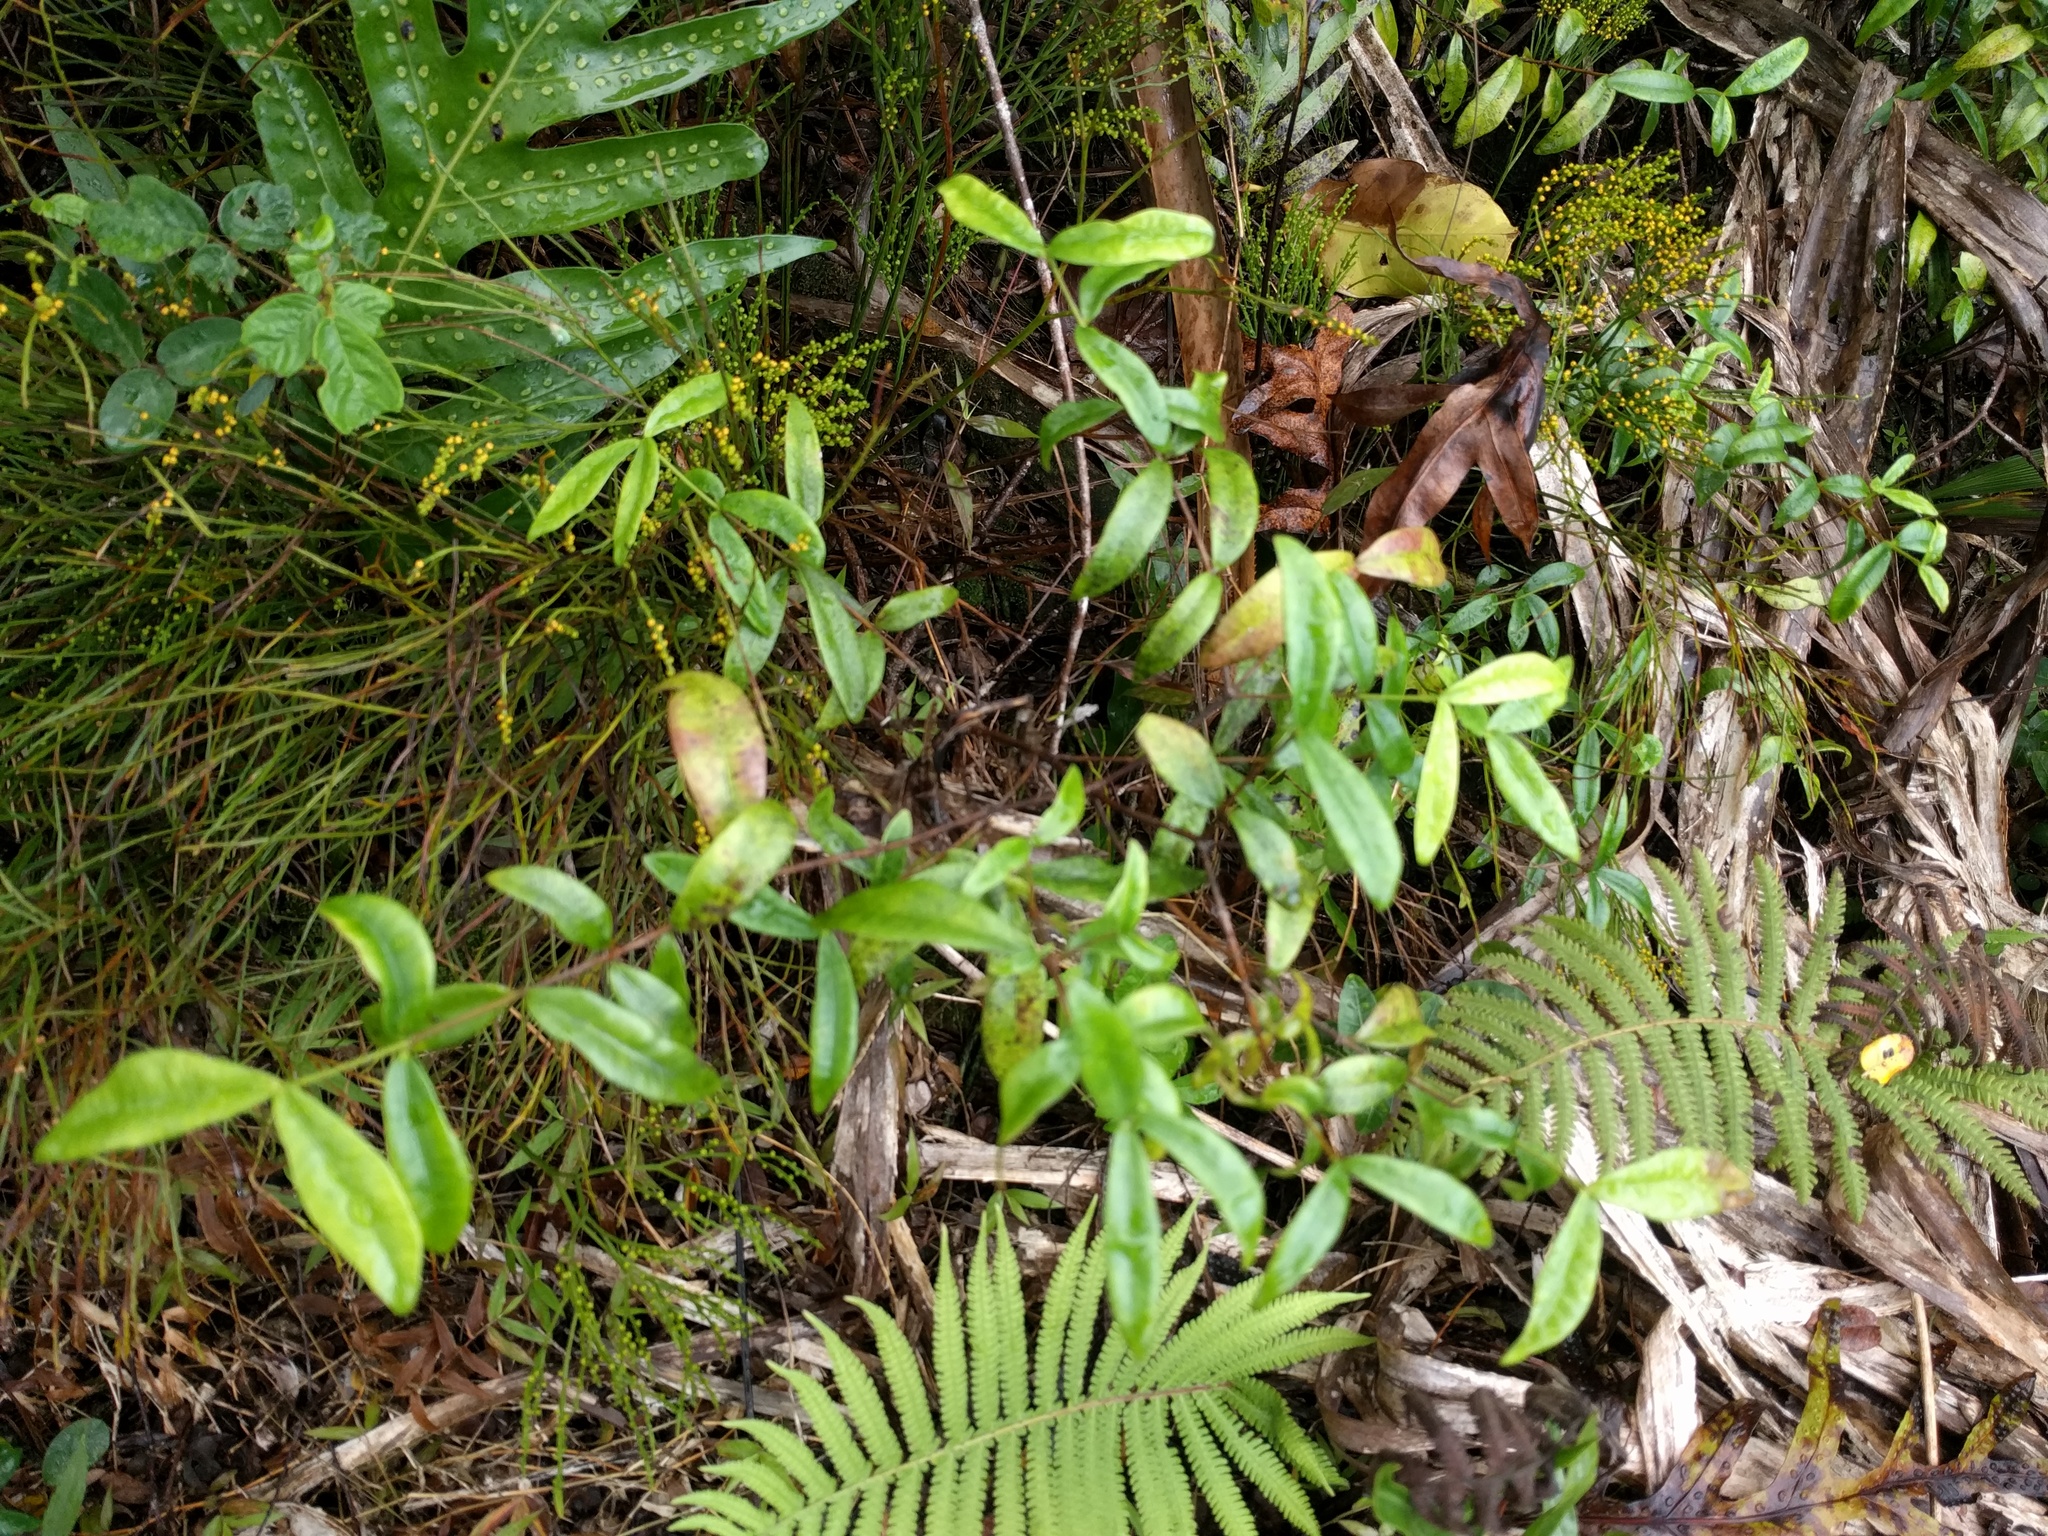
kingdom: Plantae
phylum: Tracheophyta
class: Magnoliopsida
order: Gentianales
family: Apocynaceae
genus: Alyxia
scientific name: Alyxia stellata
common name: Maile
